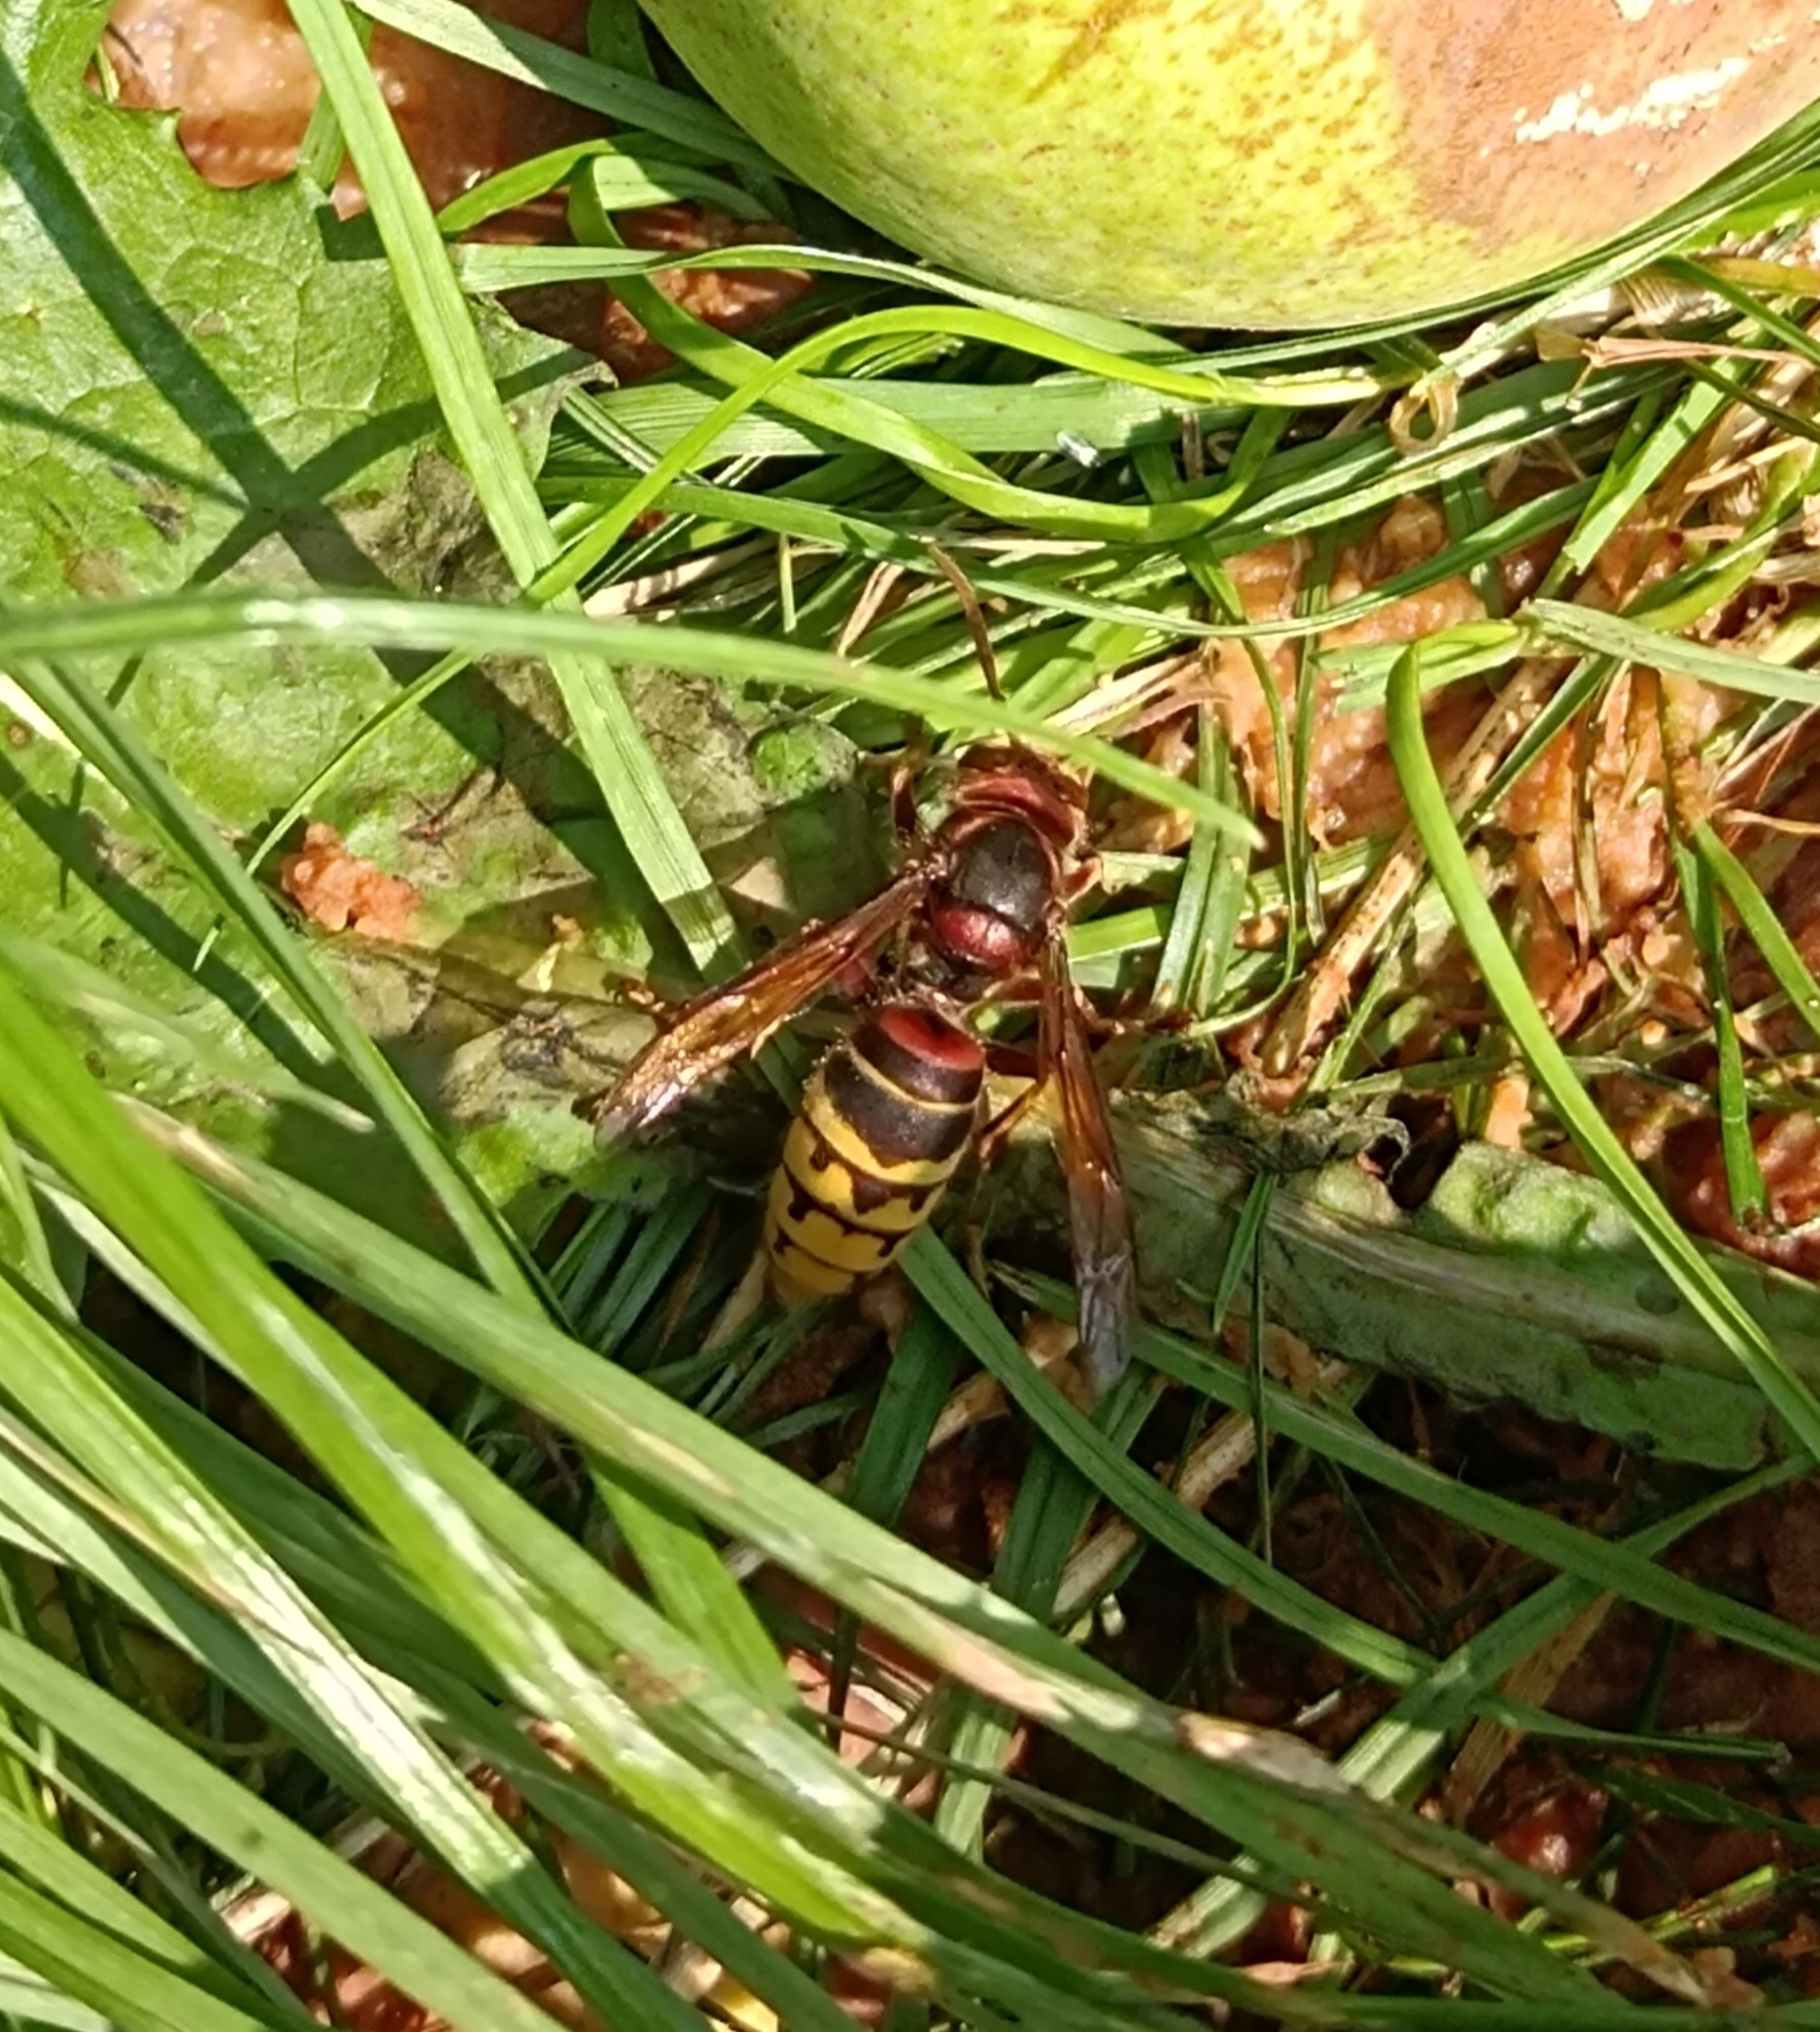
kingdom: Animalia
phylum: Arthropoda
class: Insecta
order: Hymenoptera
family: Vespidae
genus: Vespa
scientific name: Vespa crabro
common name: Hornet
